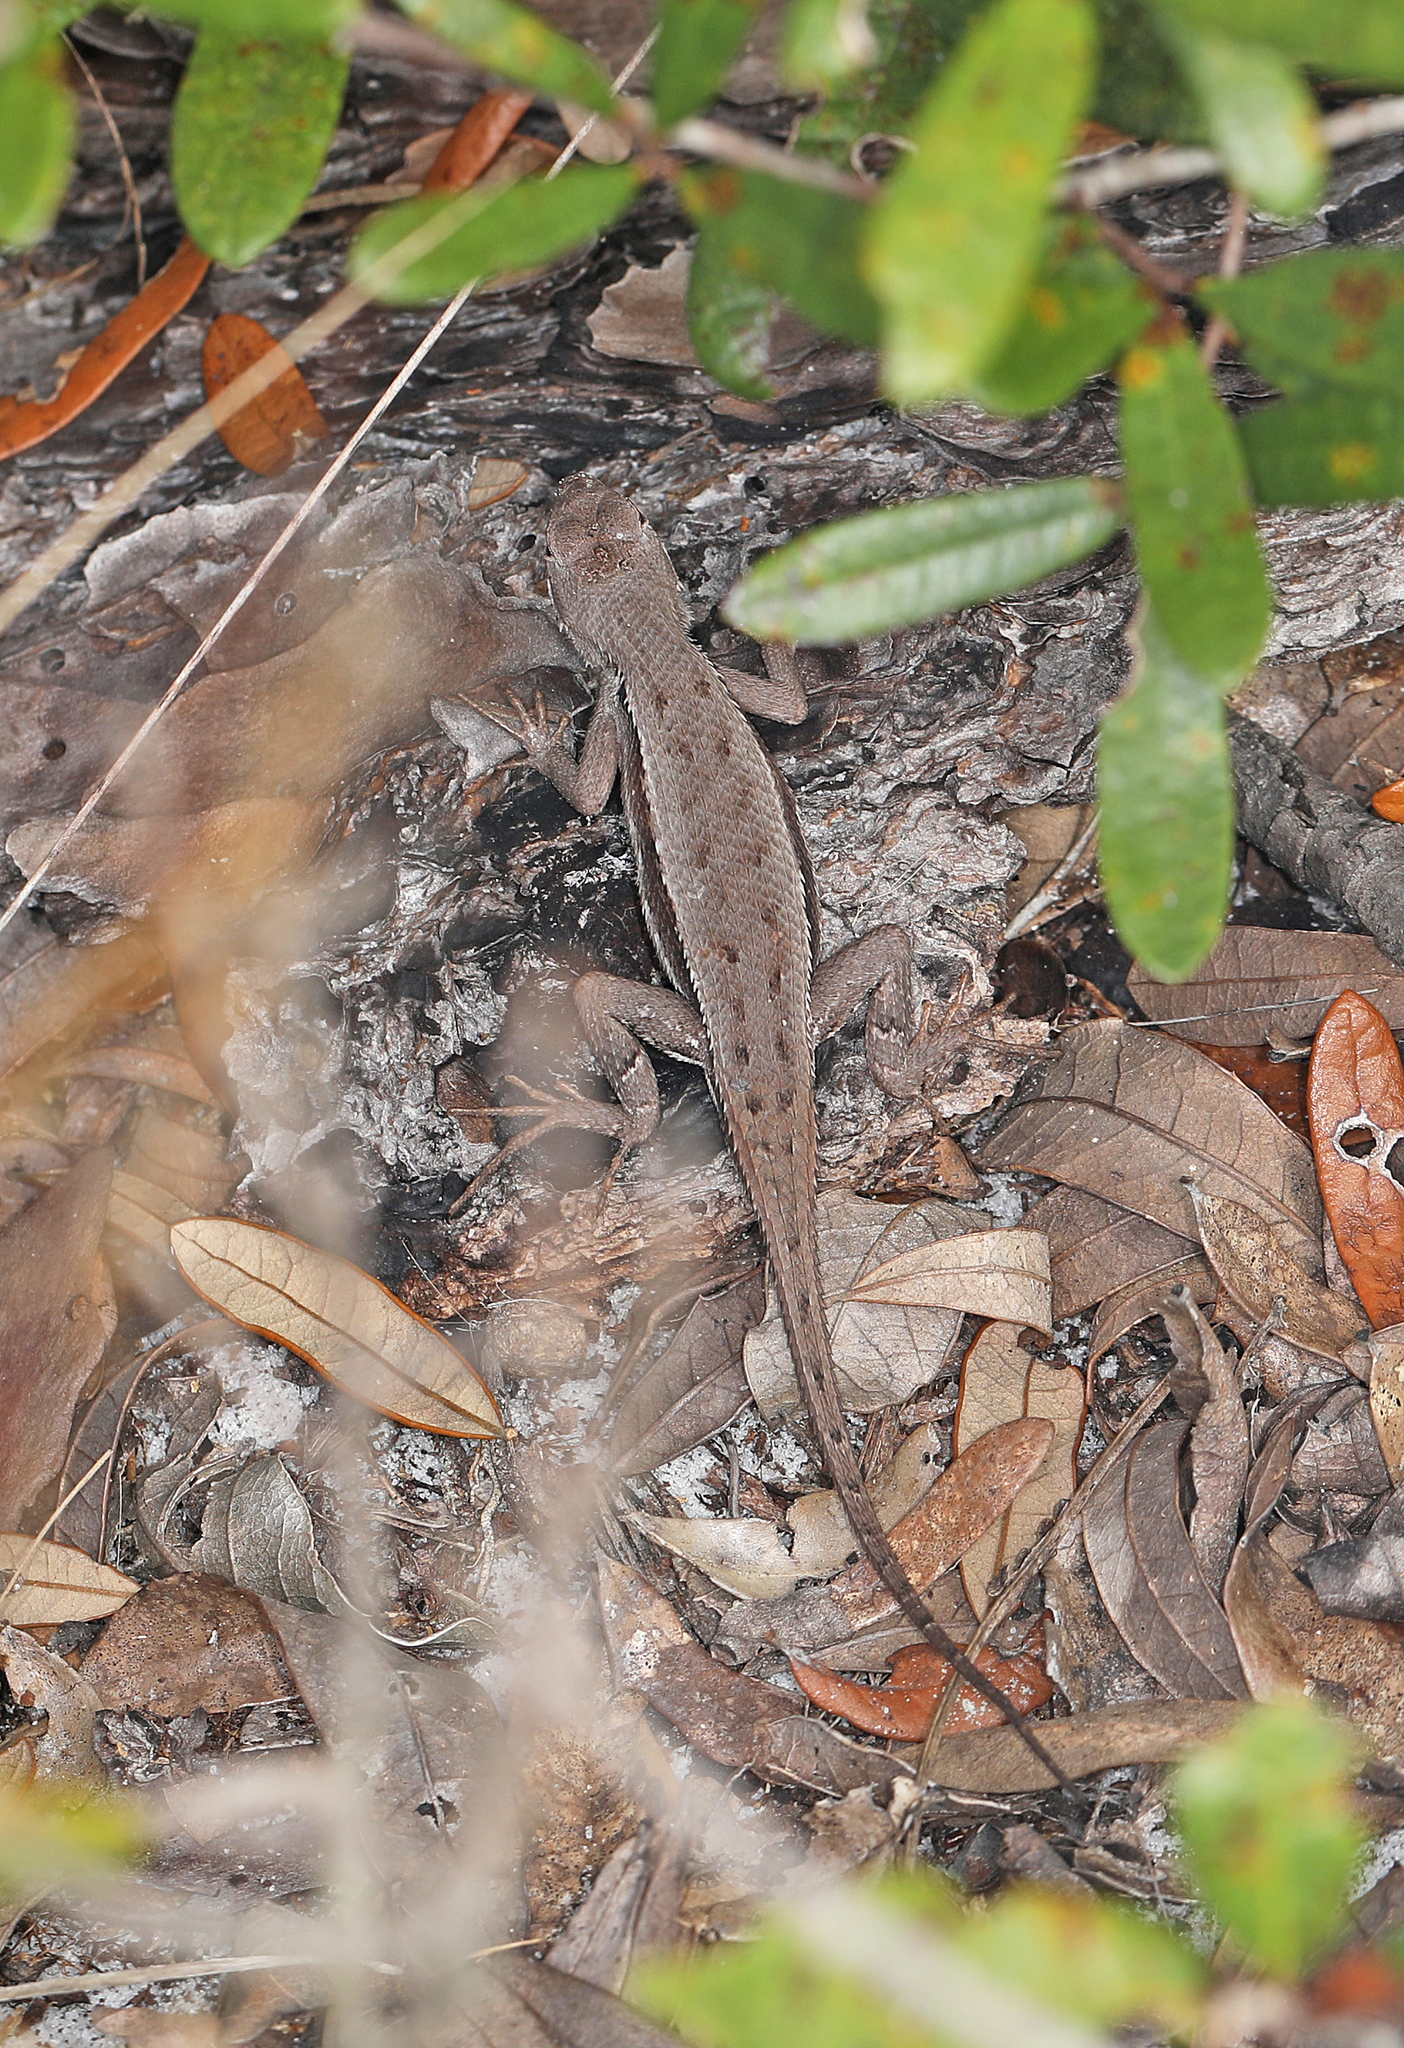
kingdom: Animalia
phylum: Chordata
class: Squamata
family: Phrynosomatidae
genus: Sceloporus
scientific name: Sceloporus woodi
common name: Florida scrub lizard
